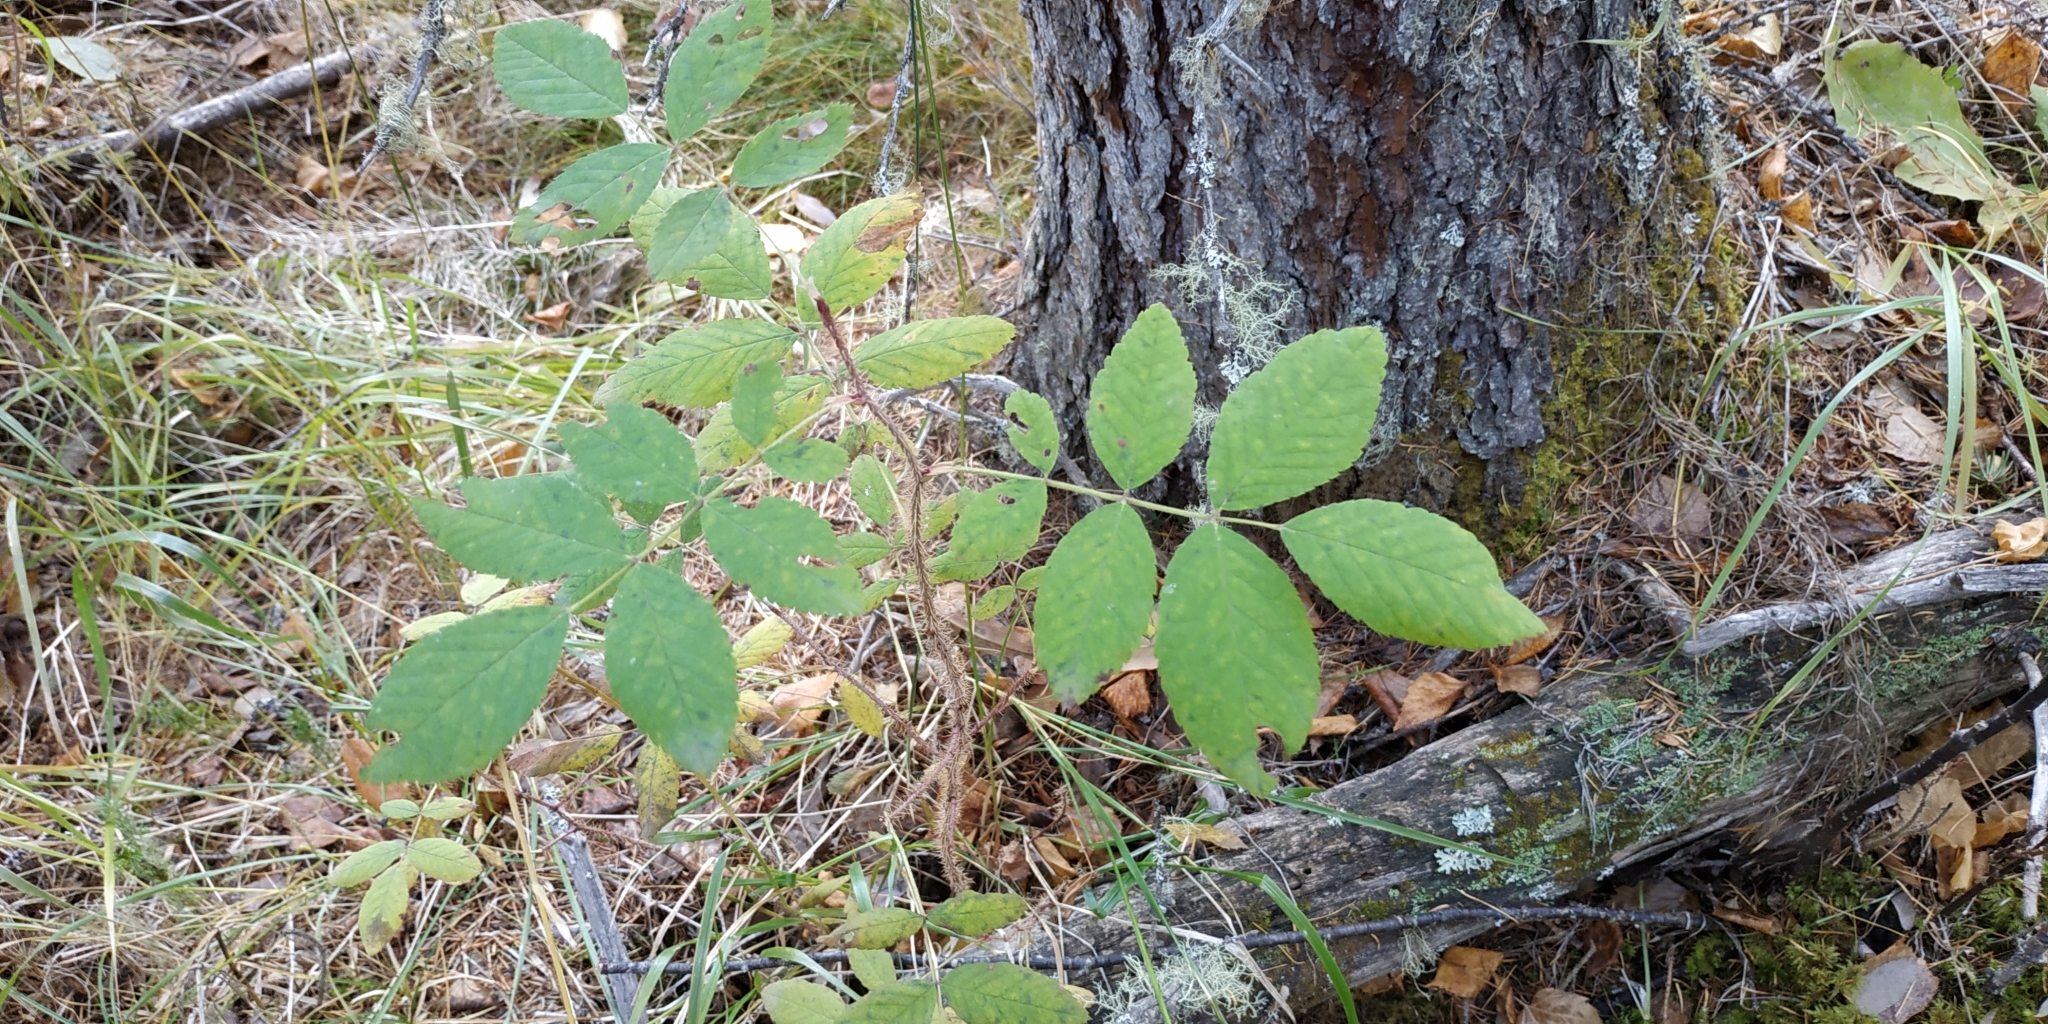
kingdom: Plantae
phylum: Tracheophyta
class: Magnoliopsida
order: Rosales
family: Rosaceae
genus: Rosa
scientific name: Rosa acicularis
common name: Prickly rose
